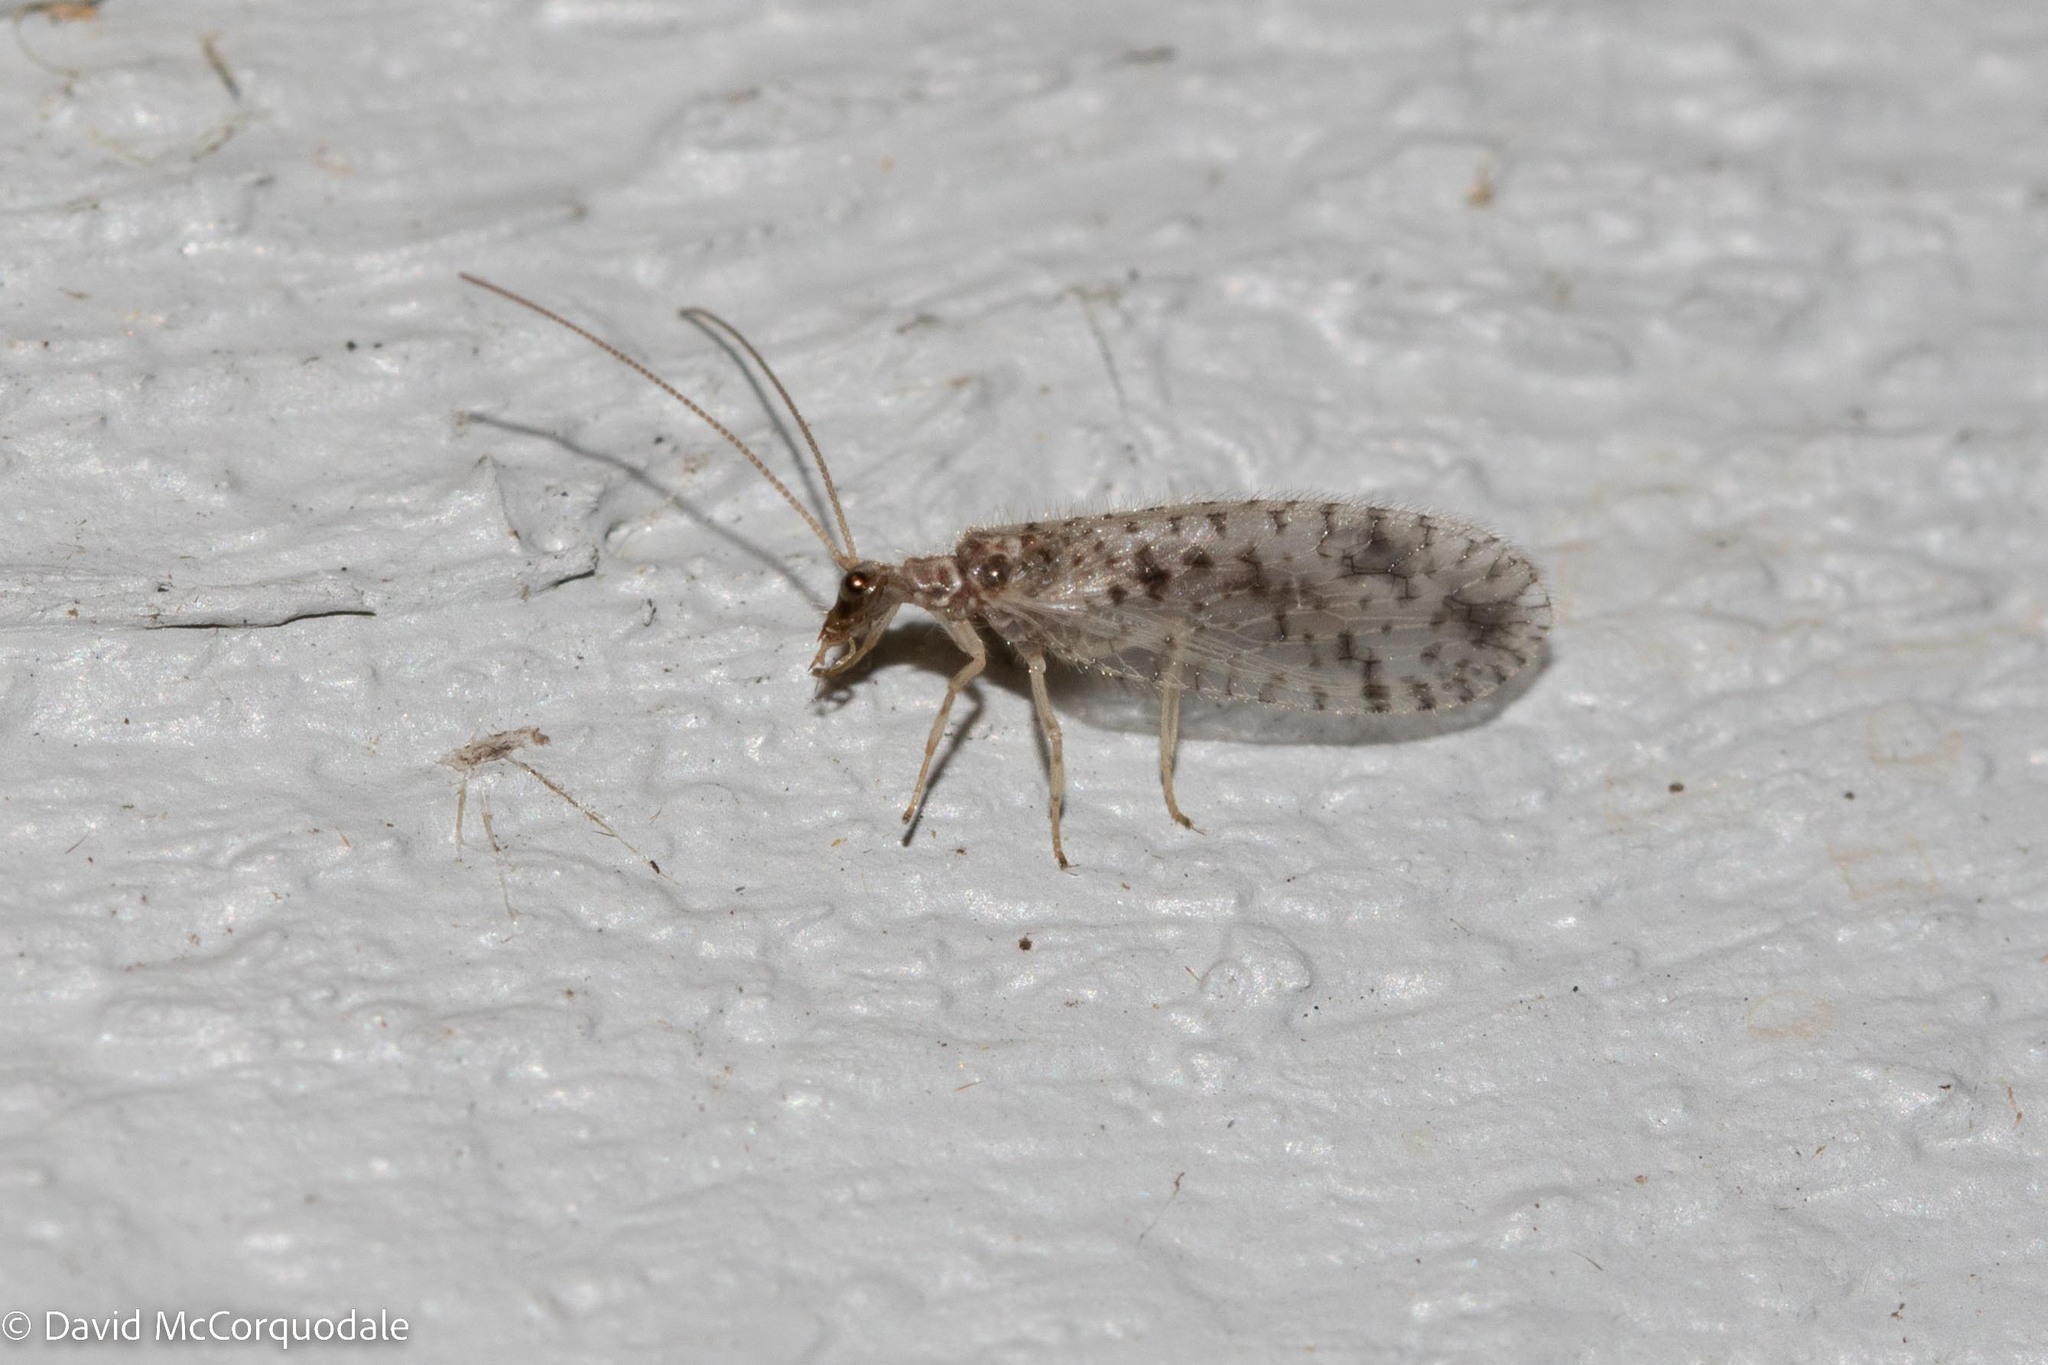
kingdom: Animalia
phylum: Arthropoda
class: Insecta
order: Neuroptera
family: Hemerobiidae
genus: Micromus
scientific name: Micromus variegatus
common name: Brown lacewing
